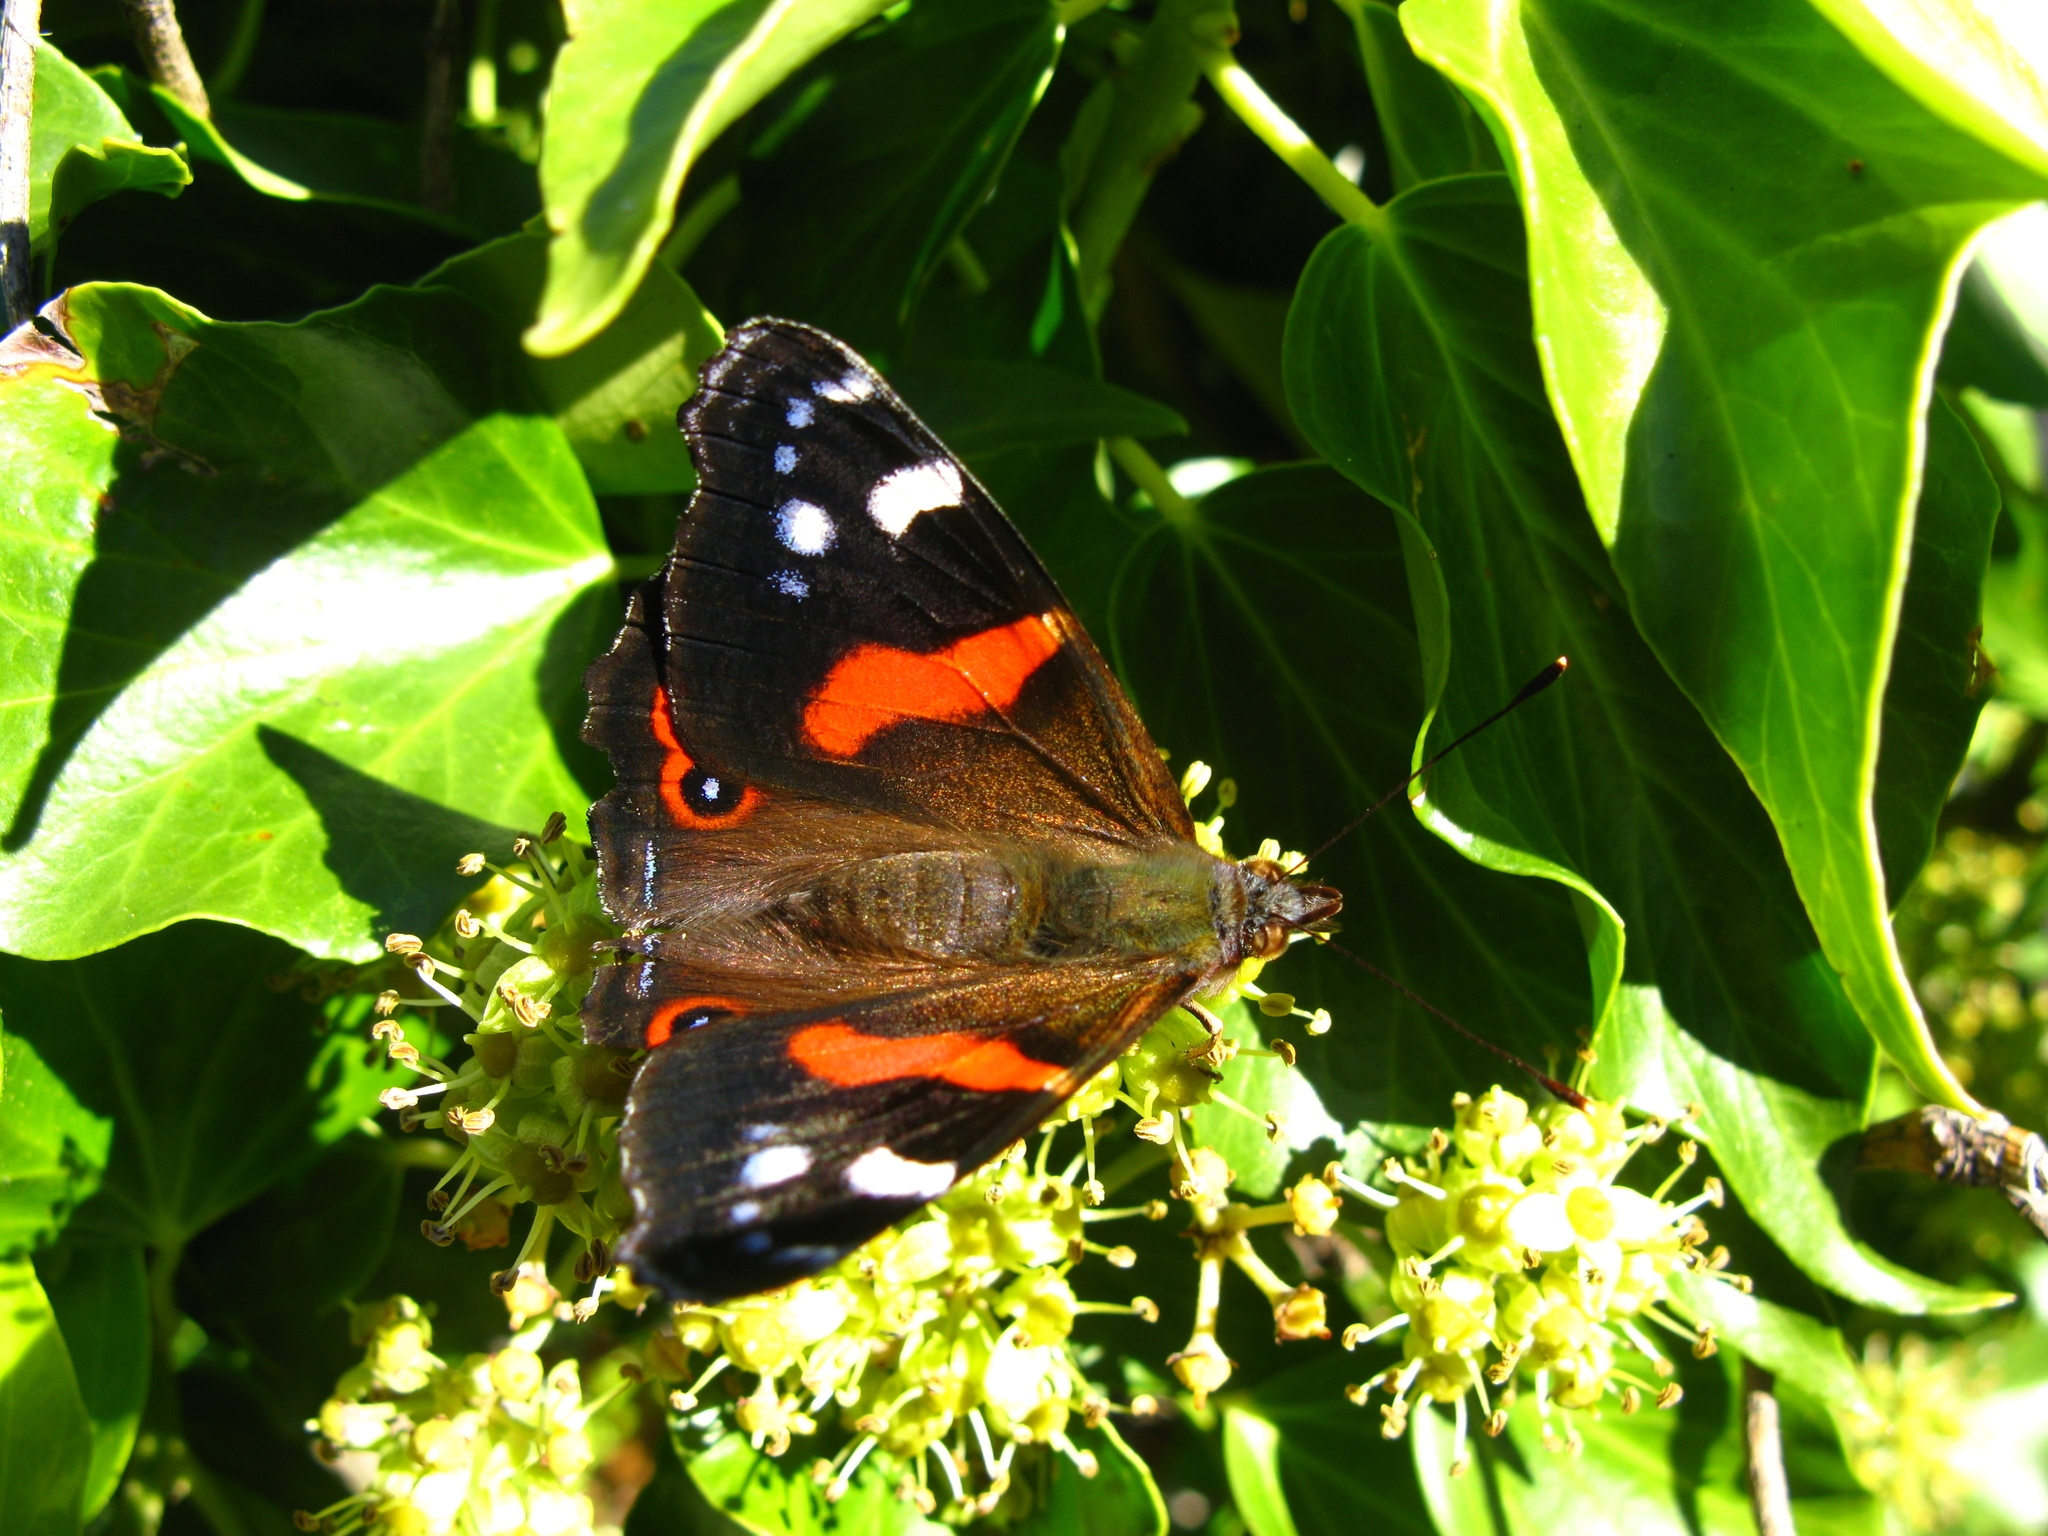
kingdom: Animalia
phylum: Arthropoda
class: Insecta
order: Lepidoptera
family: Nymphalidae
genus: Vanessa
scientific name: Vanessa gonerilla
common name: New zealand red admiral
